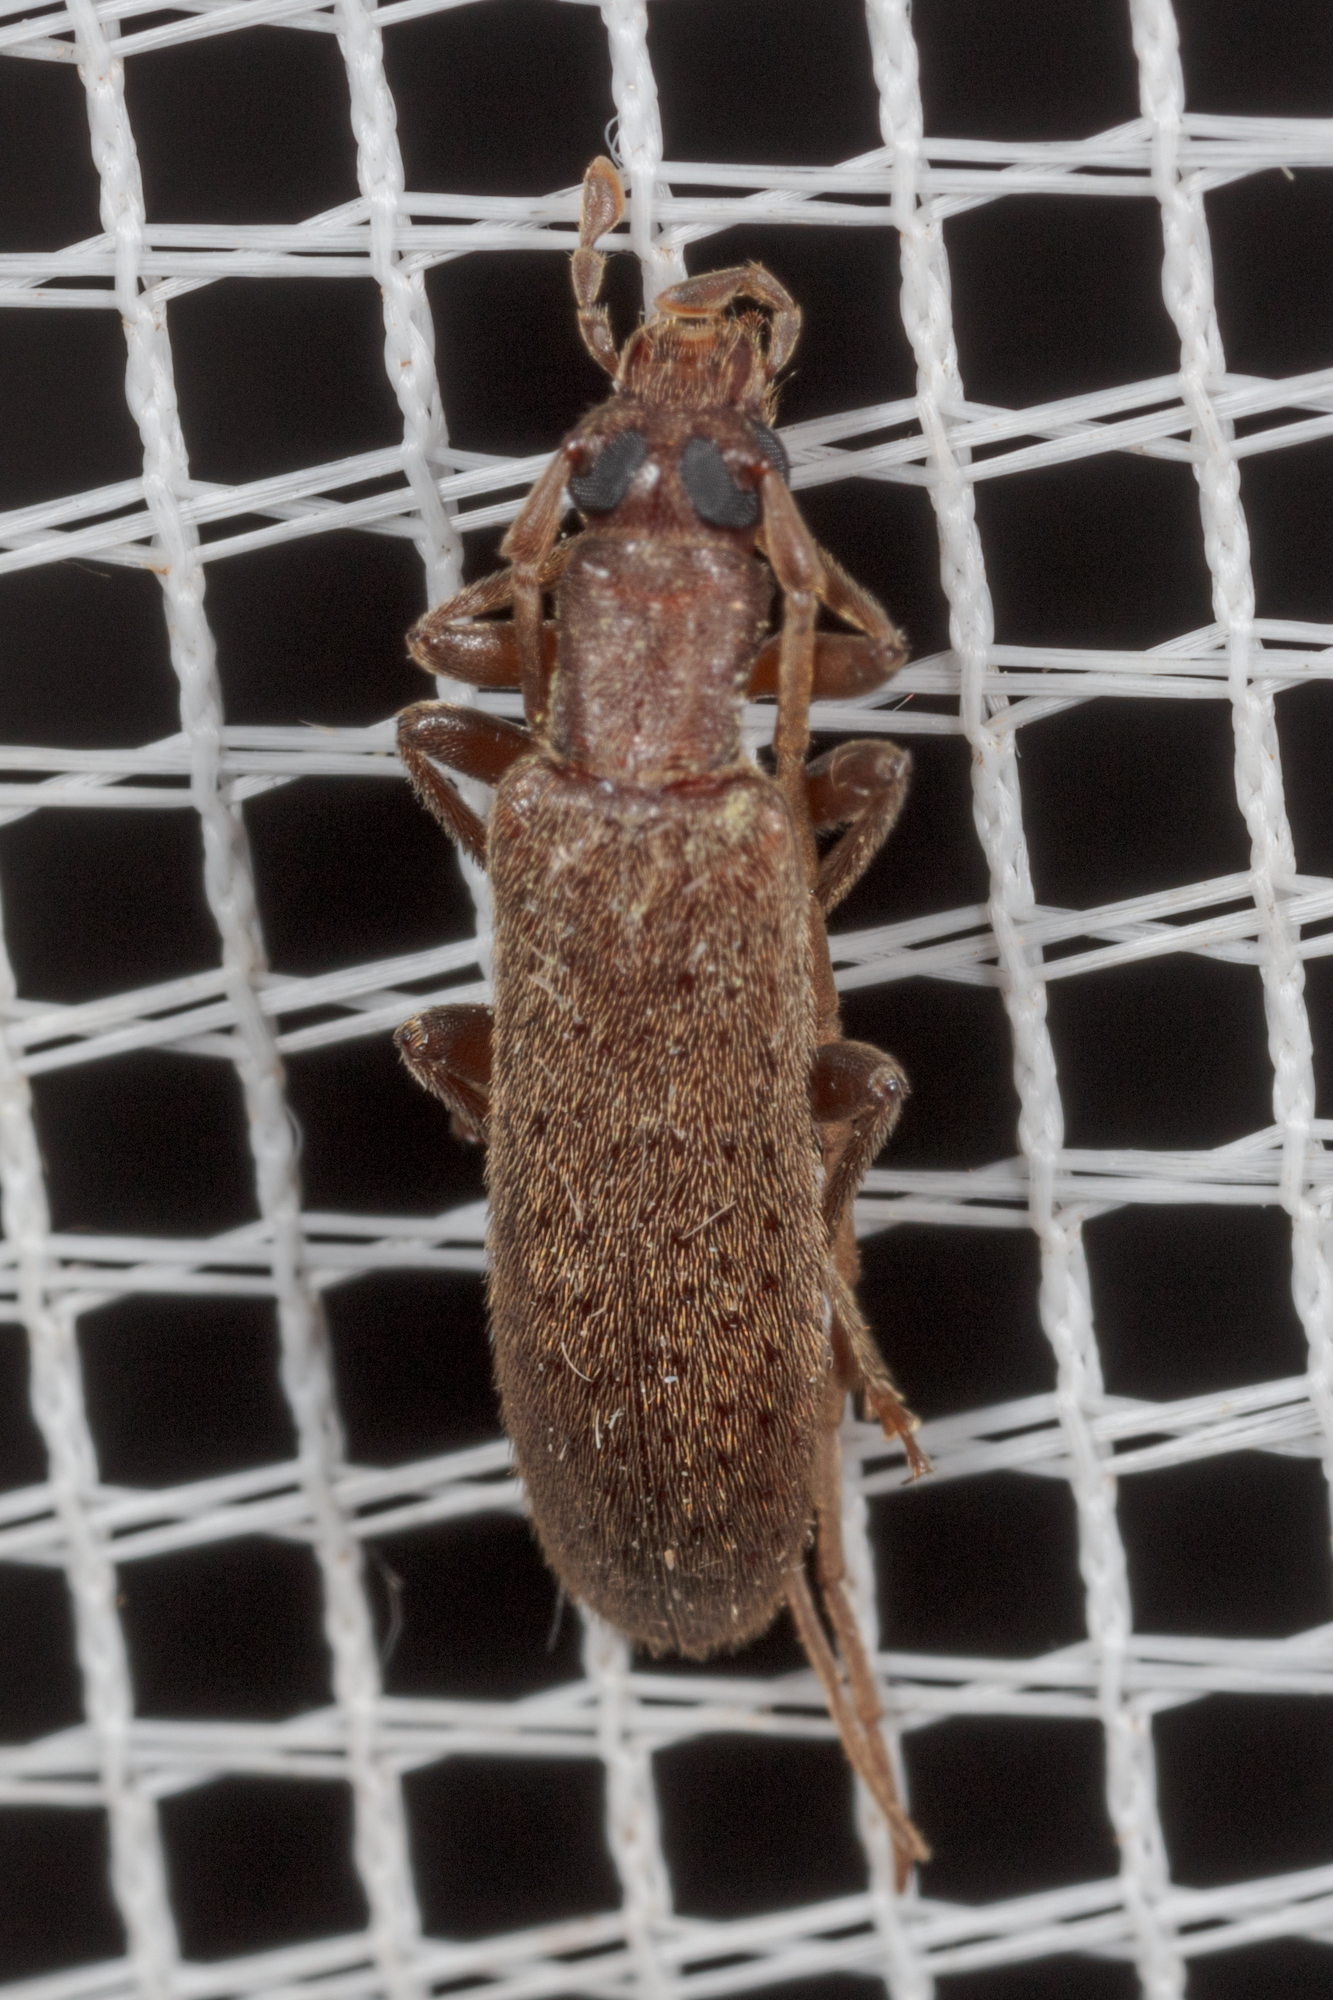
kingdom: Animalia
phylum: Arthropoda
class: Insecta
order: Coleoptera
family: Oedemeridae
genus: Sparedrus
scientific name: Sparedrus aspersus
